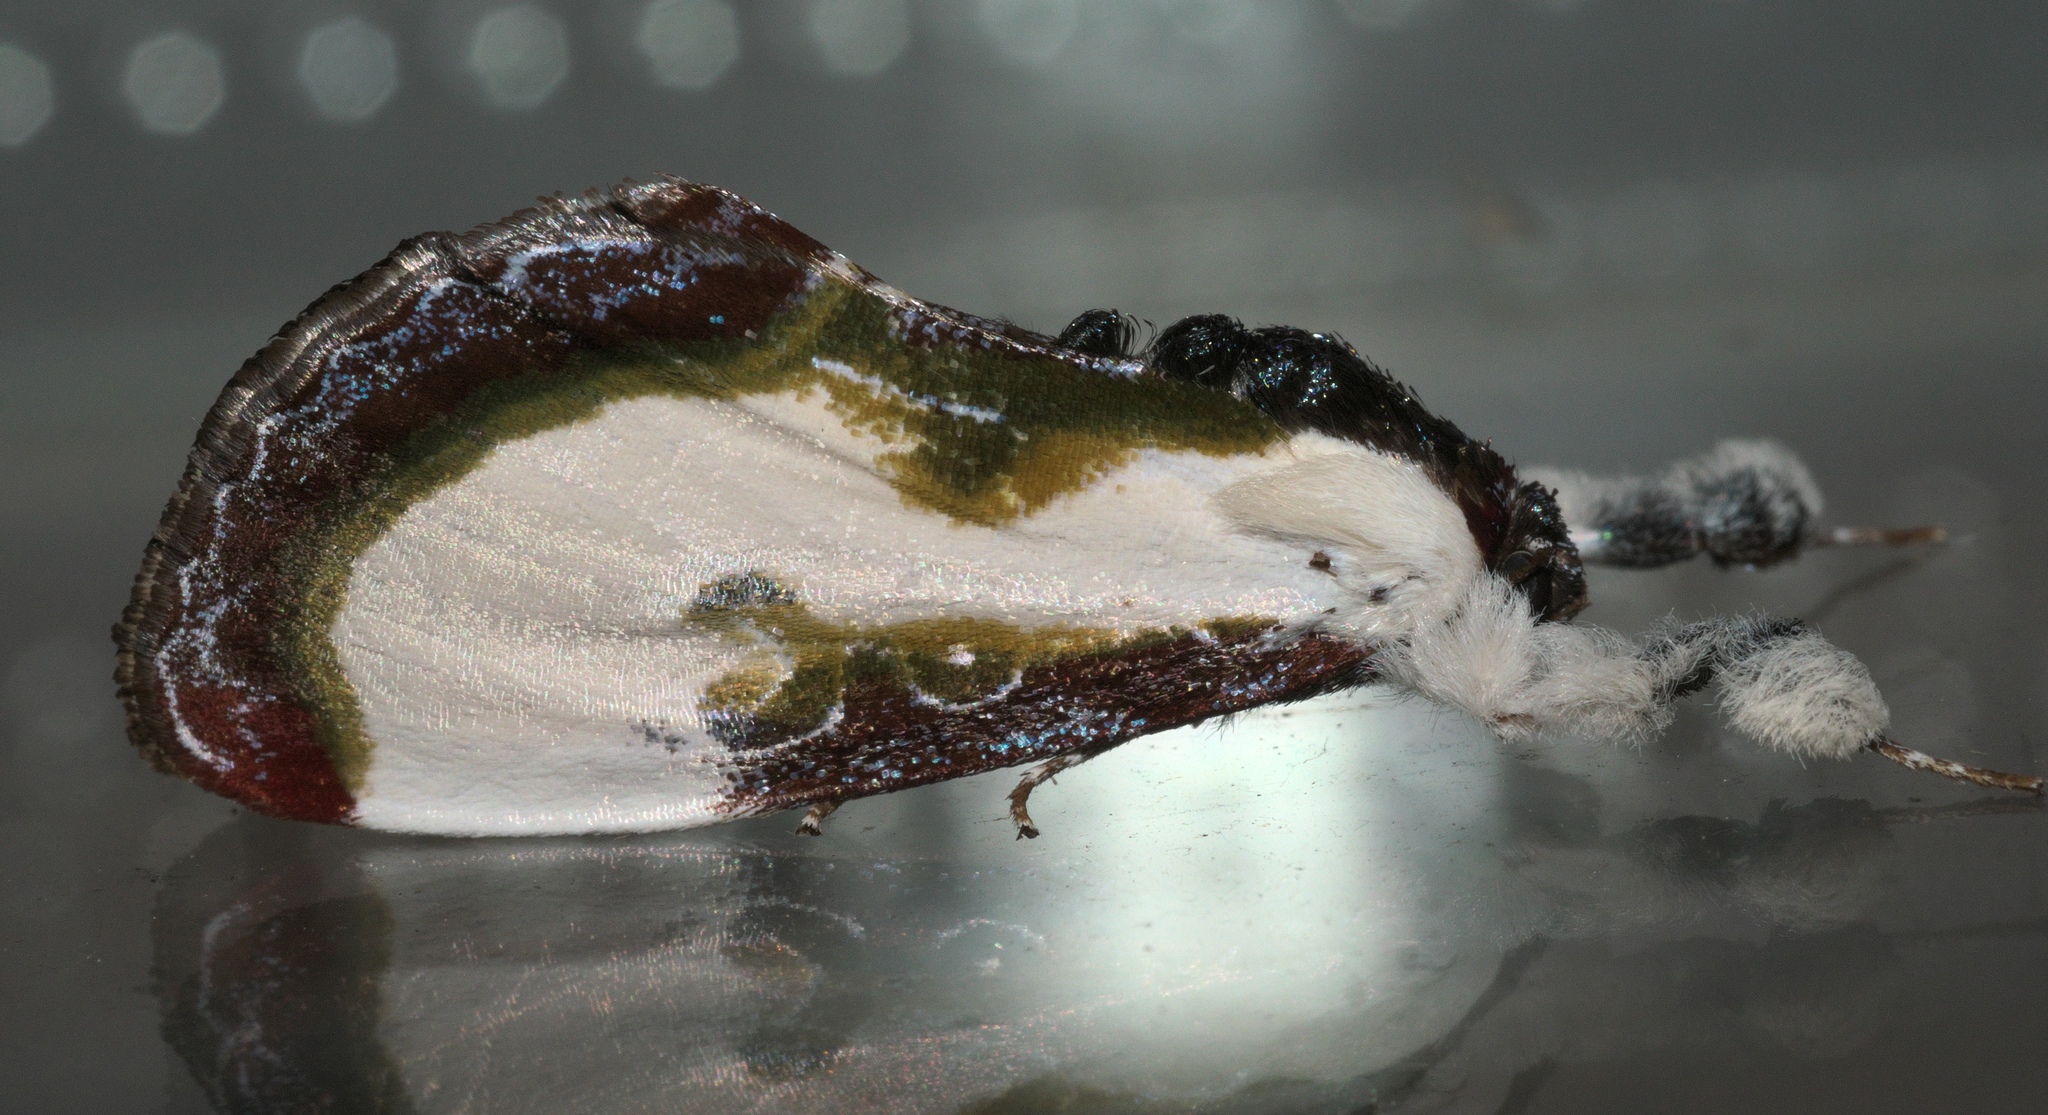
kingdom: Animalia
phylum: Arthropoda
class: Insecta
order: Lepidoptera
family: Noctuidae
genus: Eudryas
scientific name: Eudryas grata
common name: Beautiful wood-nymph
